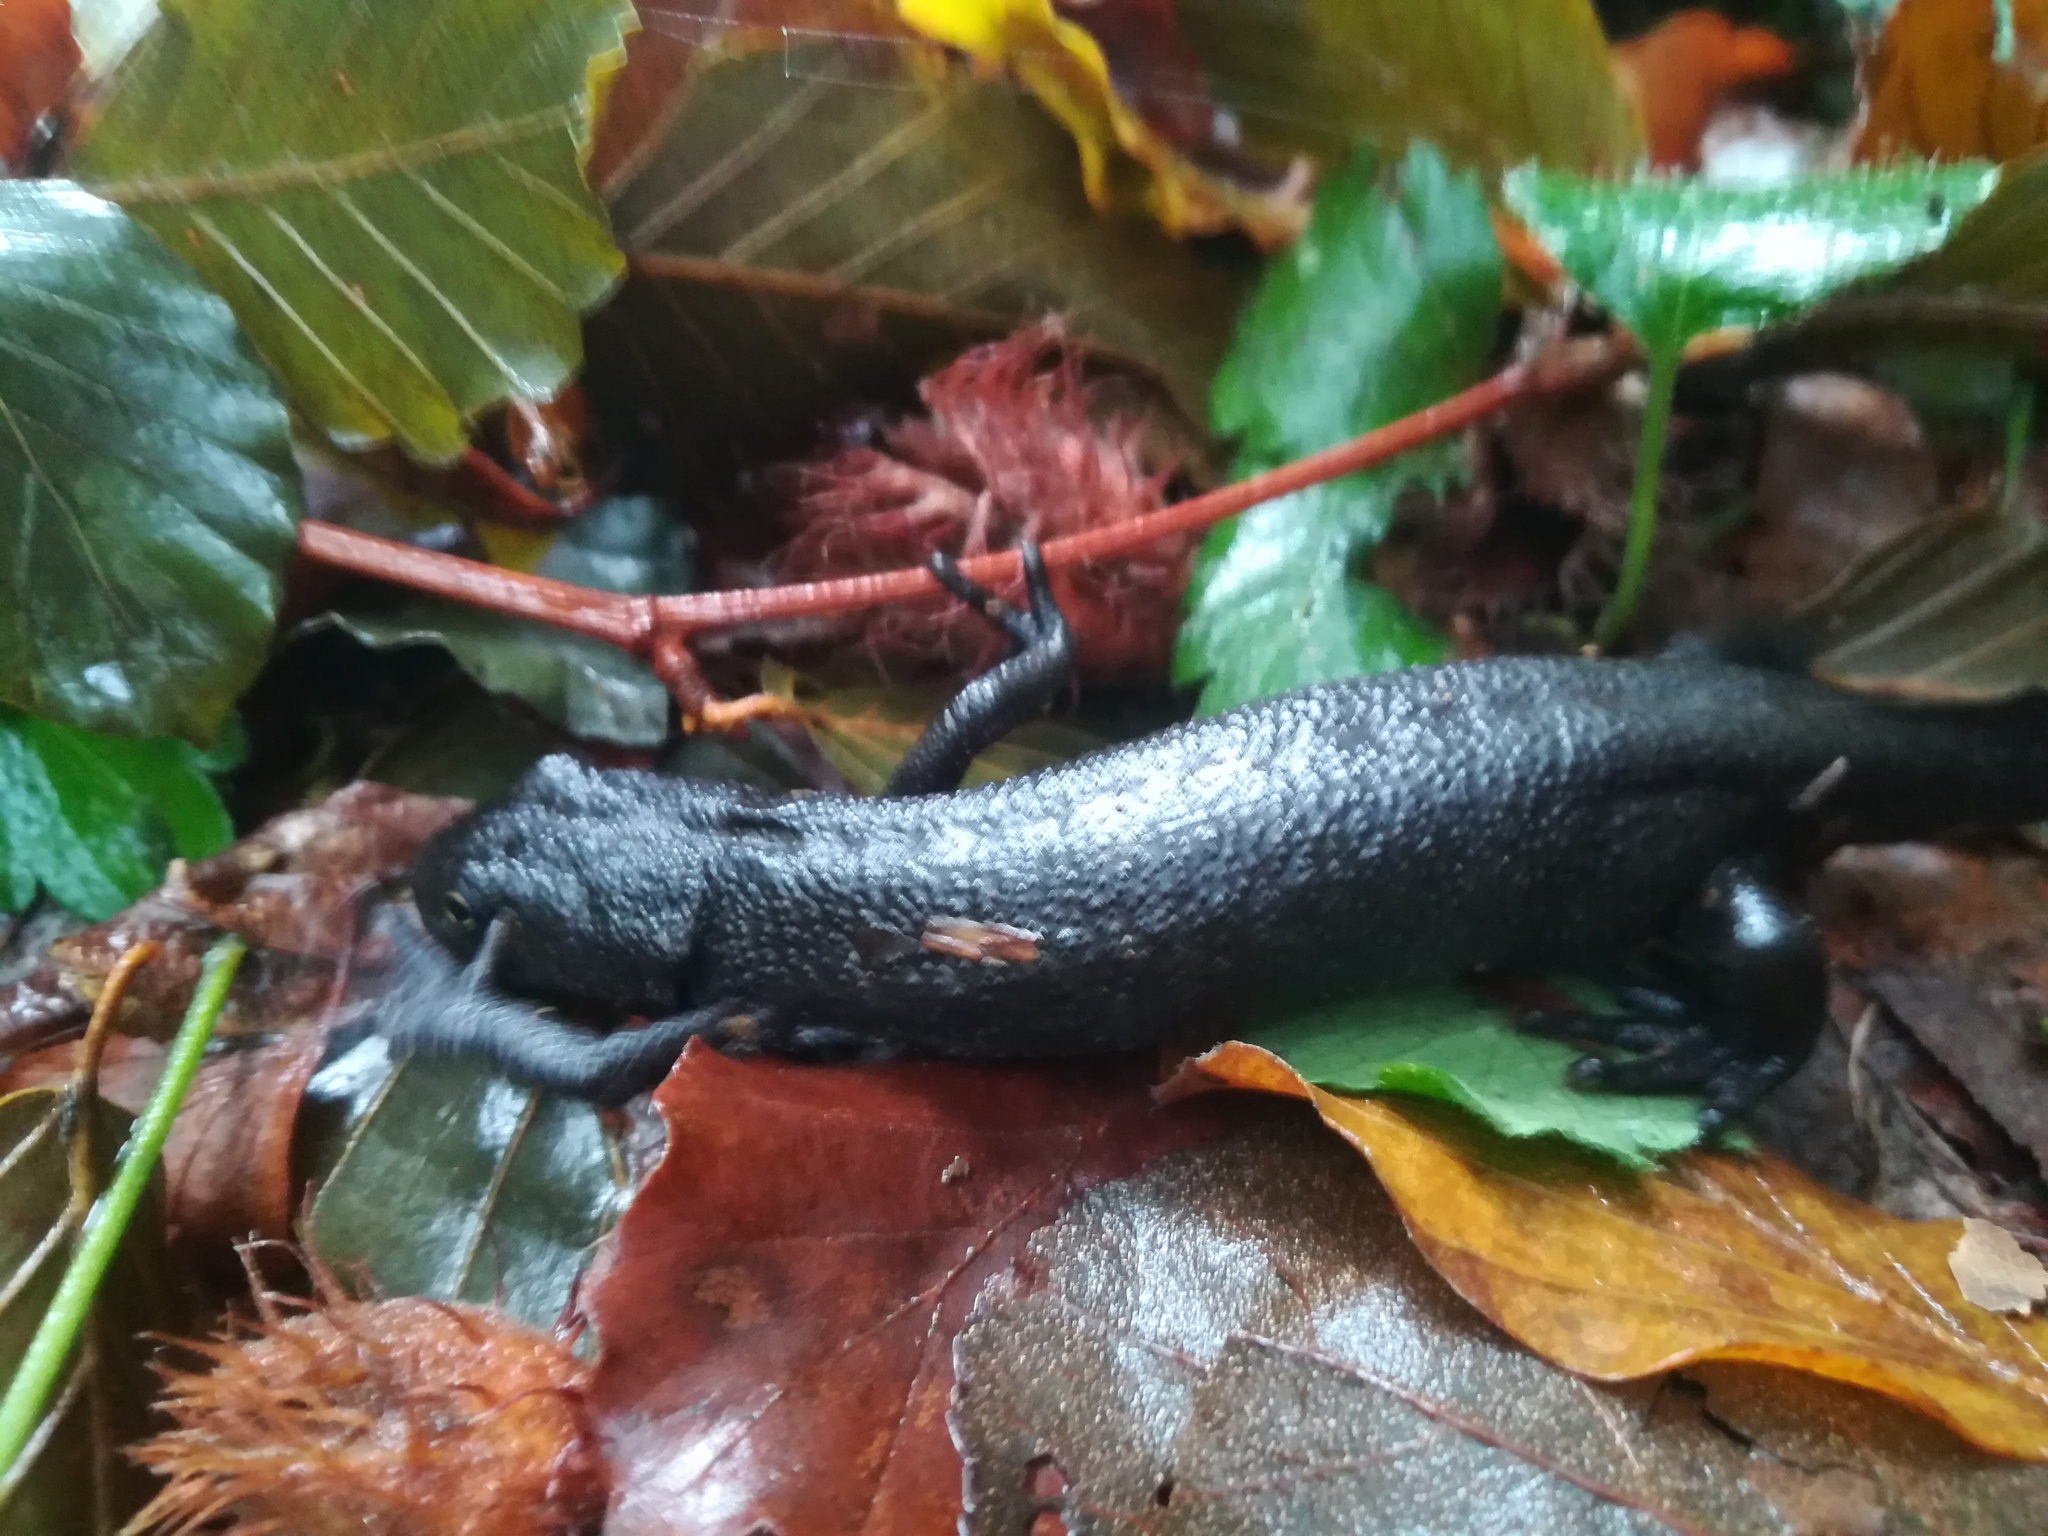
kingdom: Animalia
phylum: Chordata
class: Amphibia
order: Caudata
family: Salamandridae
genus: Triturus
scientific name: Triturus carnifex
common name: Italian crested newt
